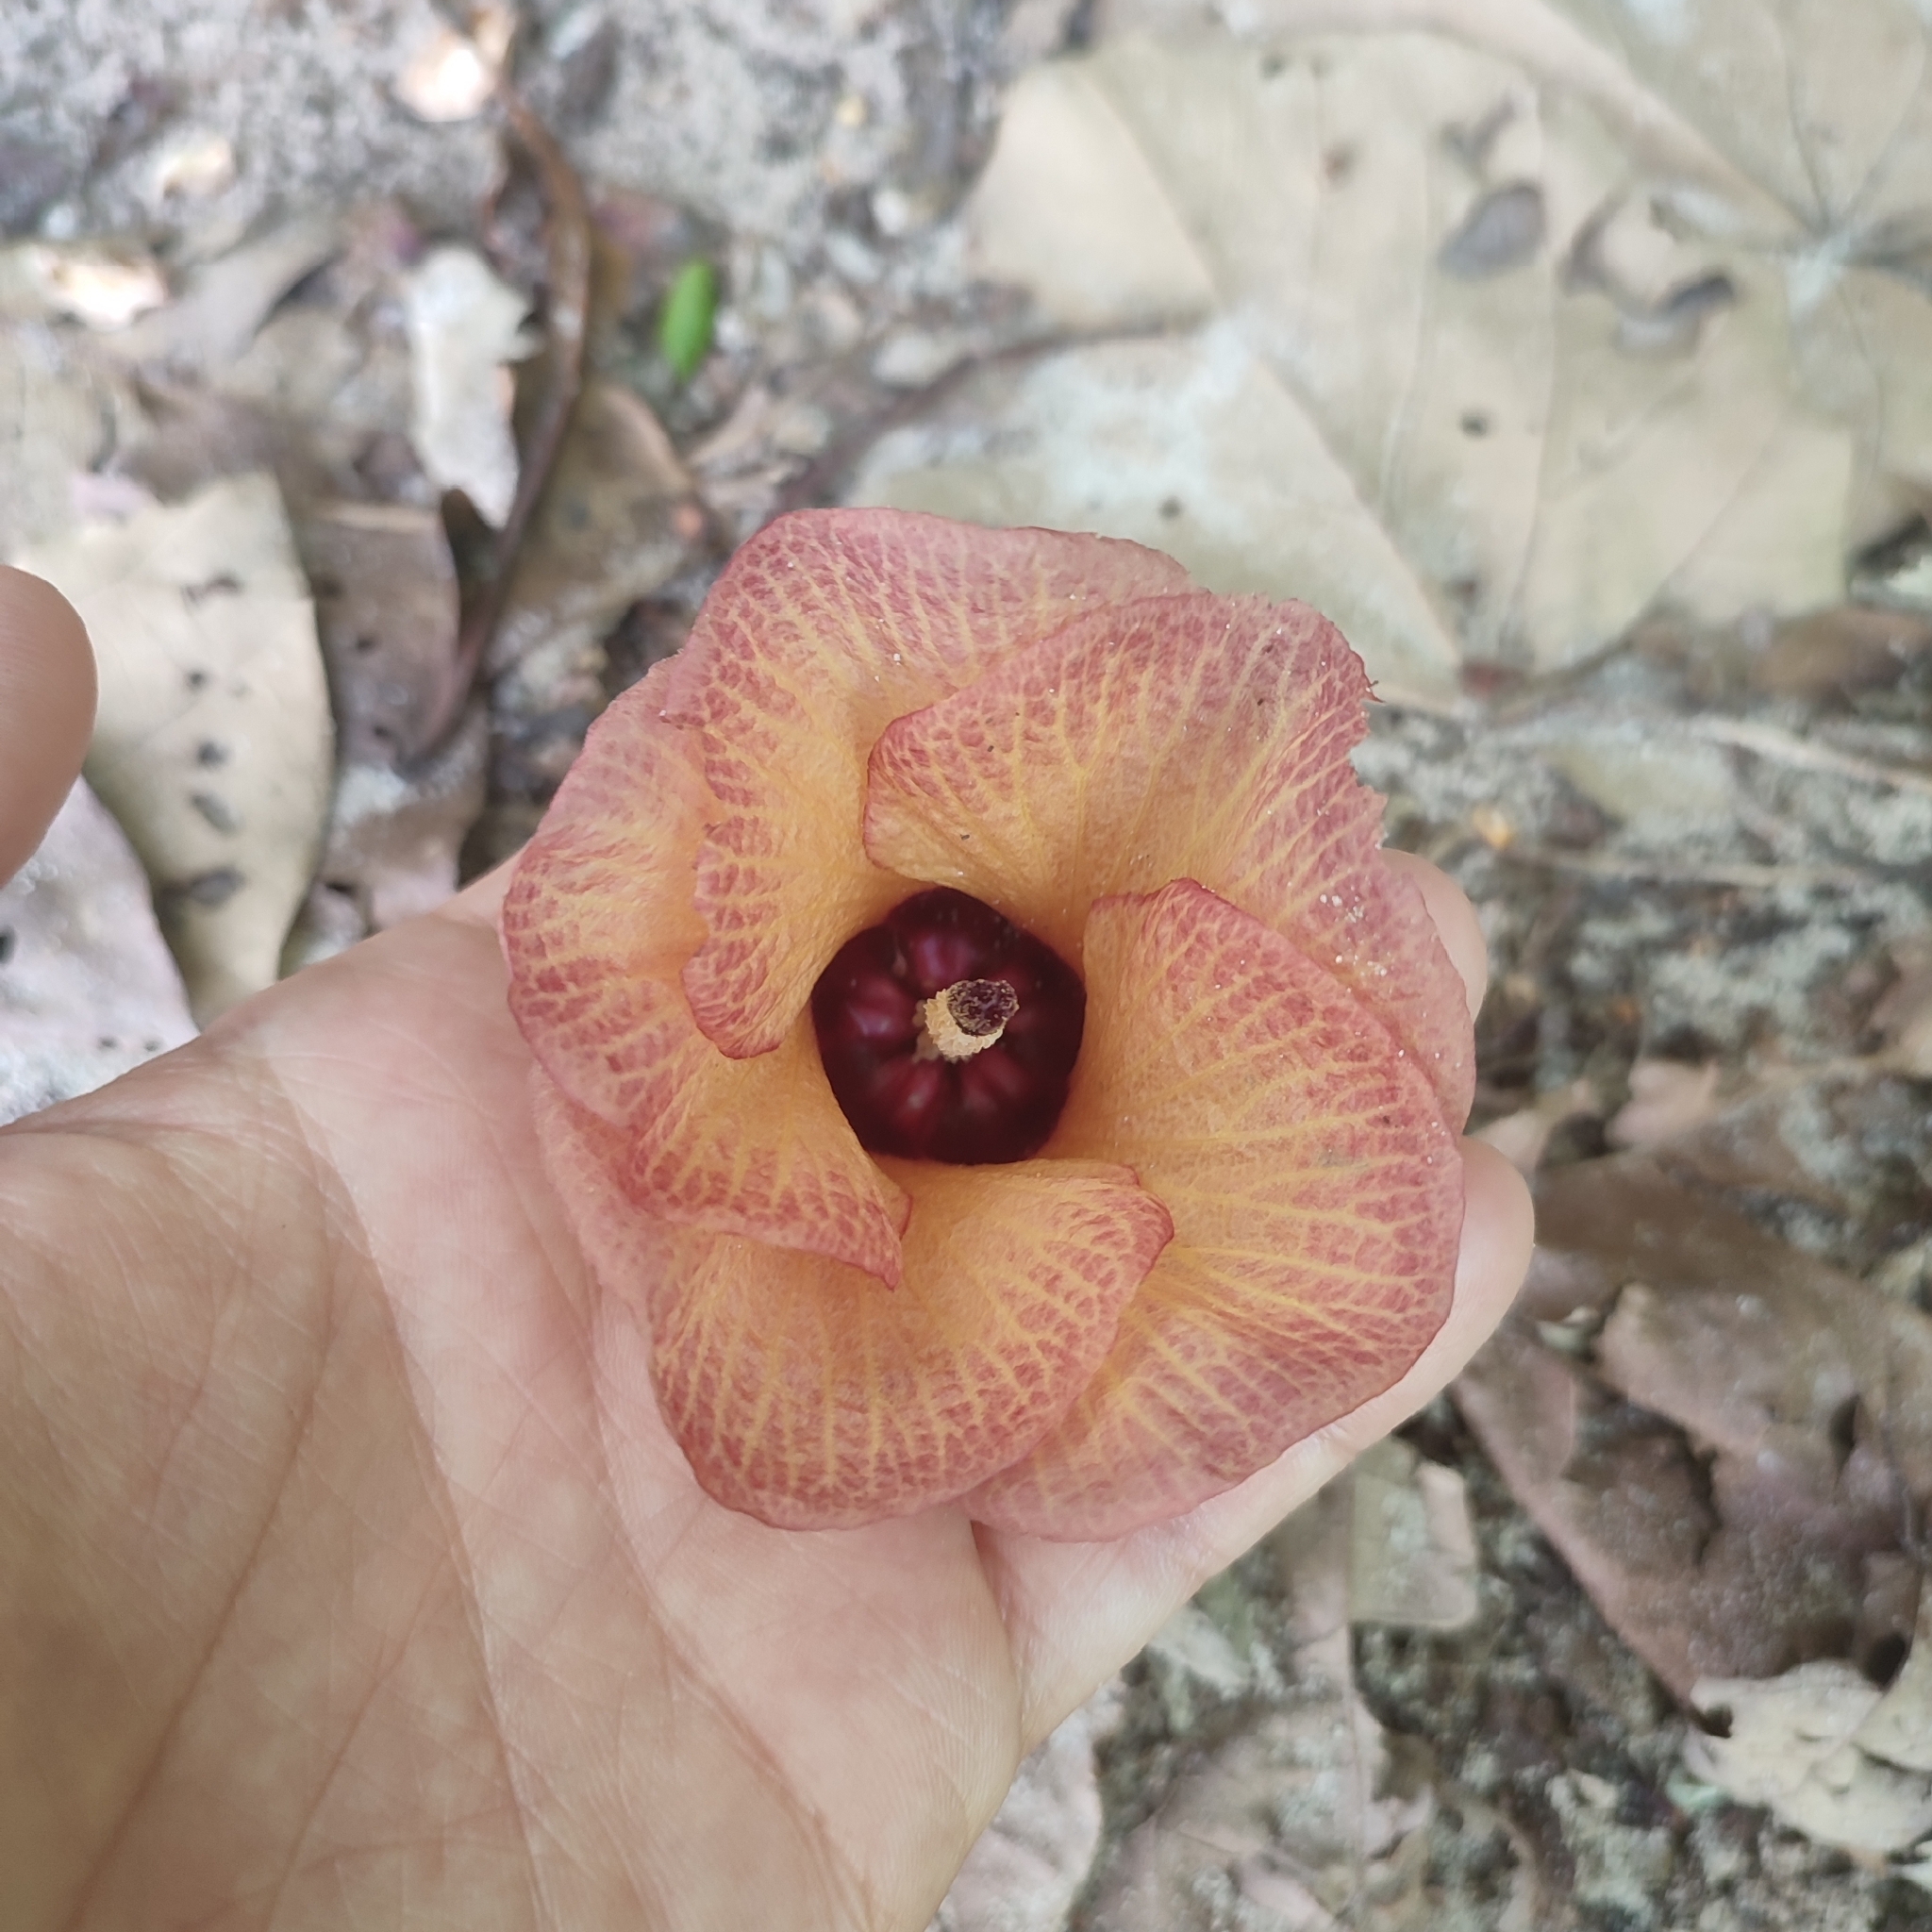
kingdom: Plantae
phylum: Tracheophyta
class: Magnoliopsida
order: Malvales
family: Malvaceae
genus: Talipariti
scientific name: Talipariti tiliaceum
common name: Sea hibiscus
